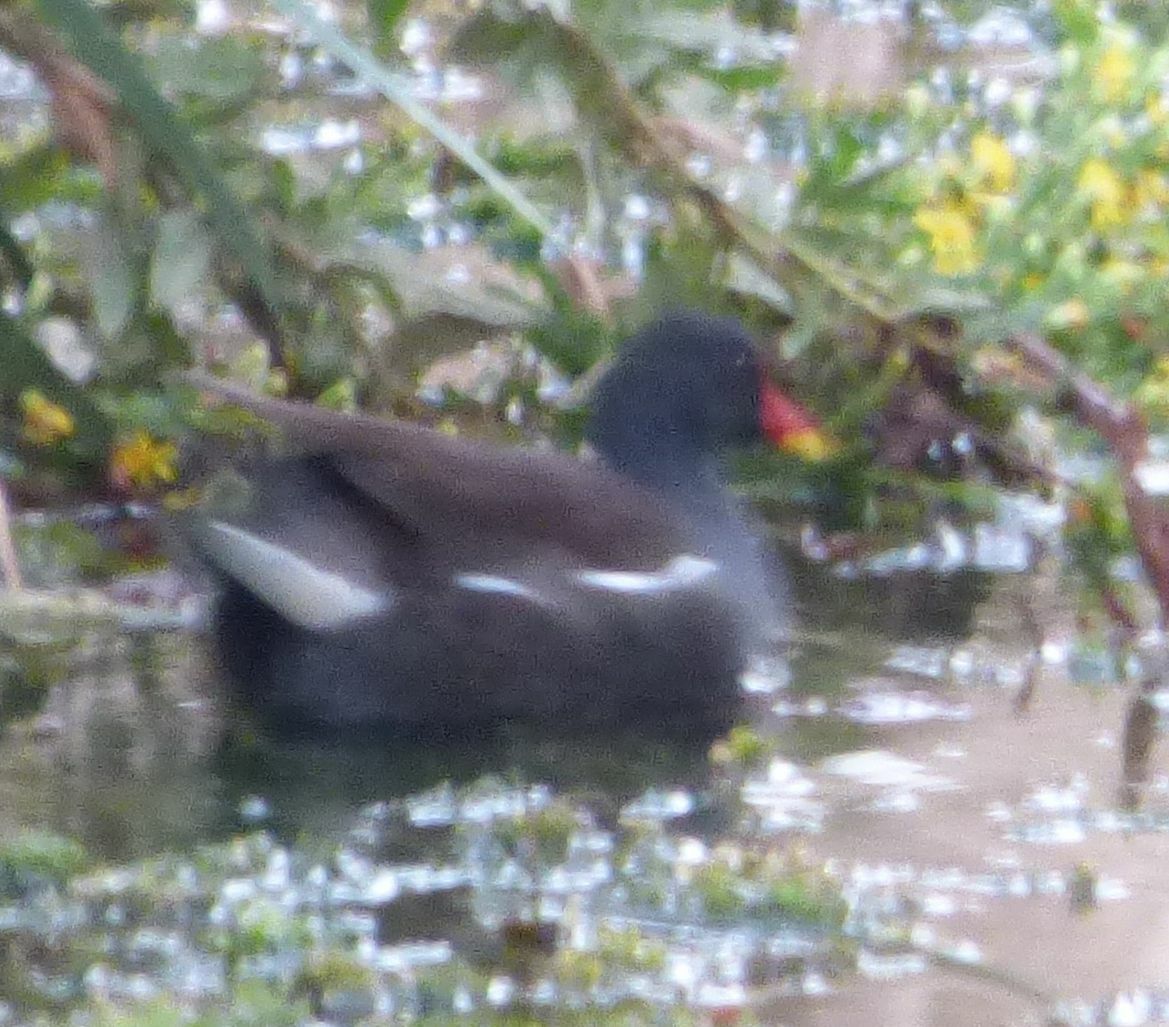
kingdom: Animalia
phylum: Chordata
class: Aves
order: Gruiformes
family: Rallidae
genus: Gallinula
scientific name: Gallinula chloropus
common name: Common moorhen
